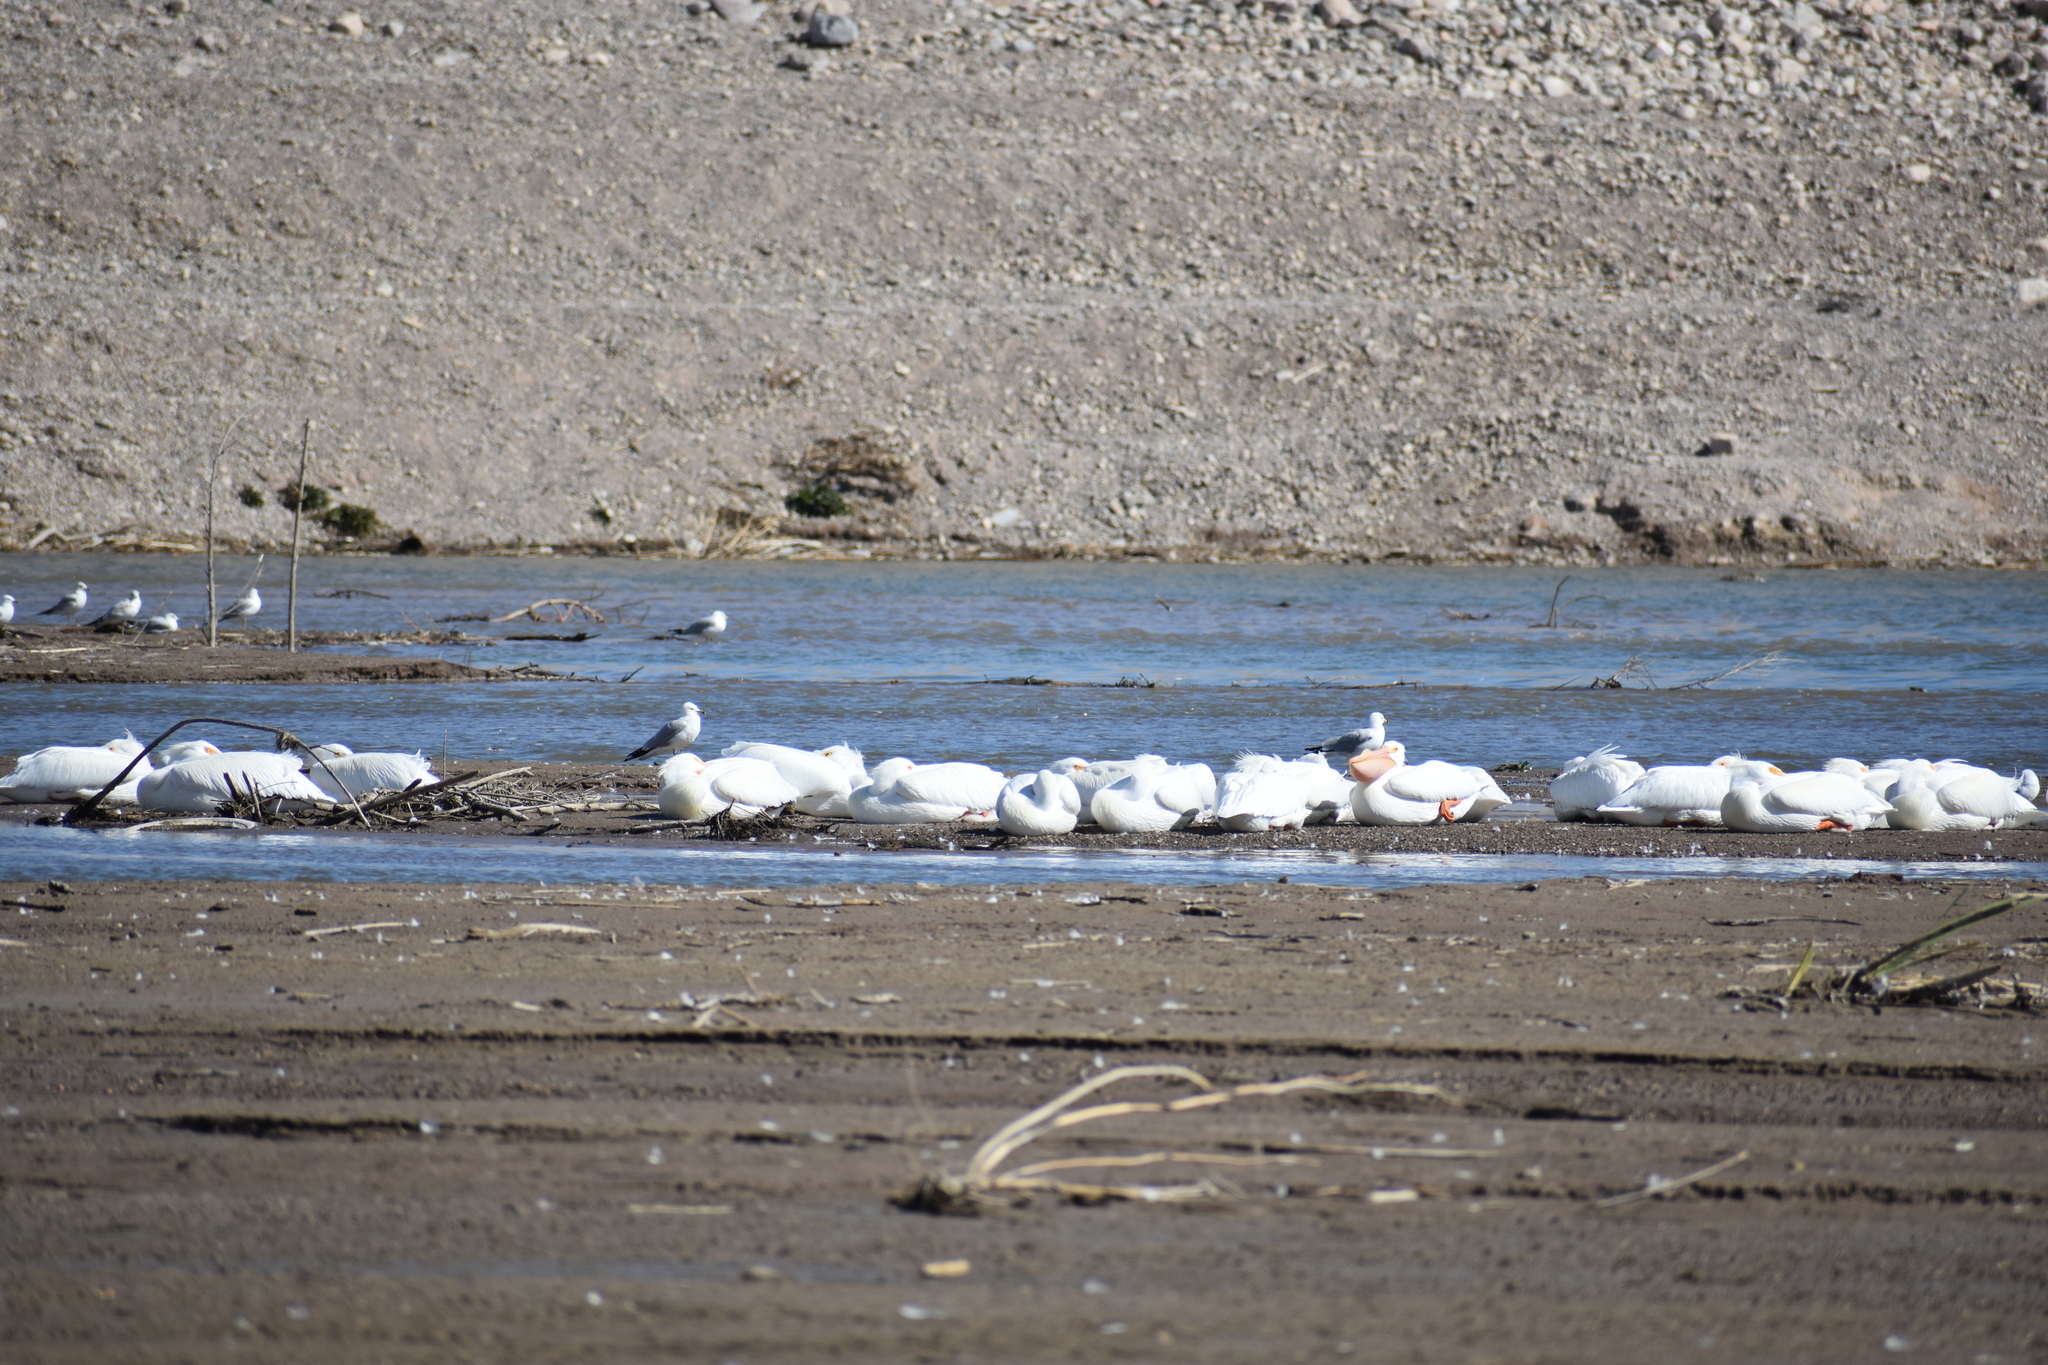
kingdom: Animalia
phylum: Chordata
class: Aves
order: Pelecaniformes
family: Pelecanidae
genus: Pelecanus
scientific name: Pelecanus erythrorhynchos
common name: American white pelican
